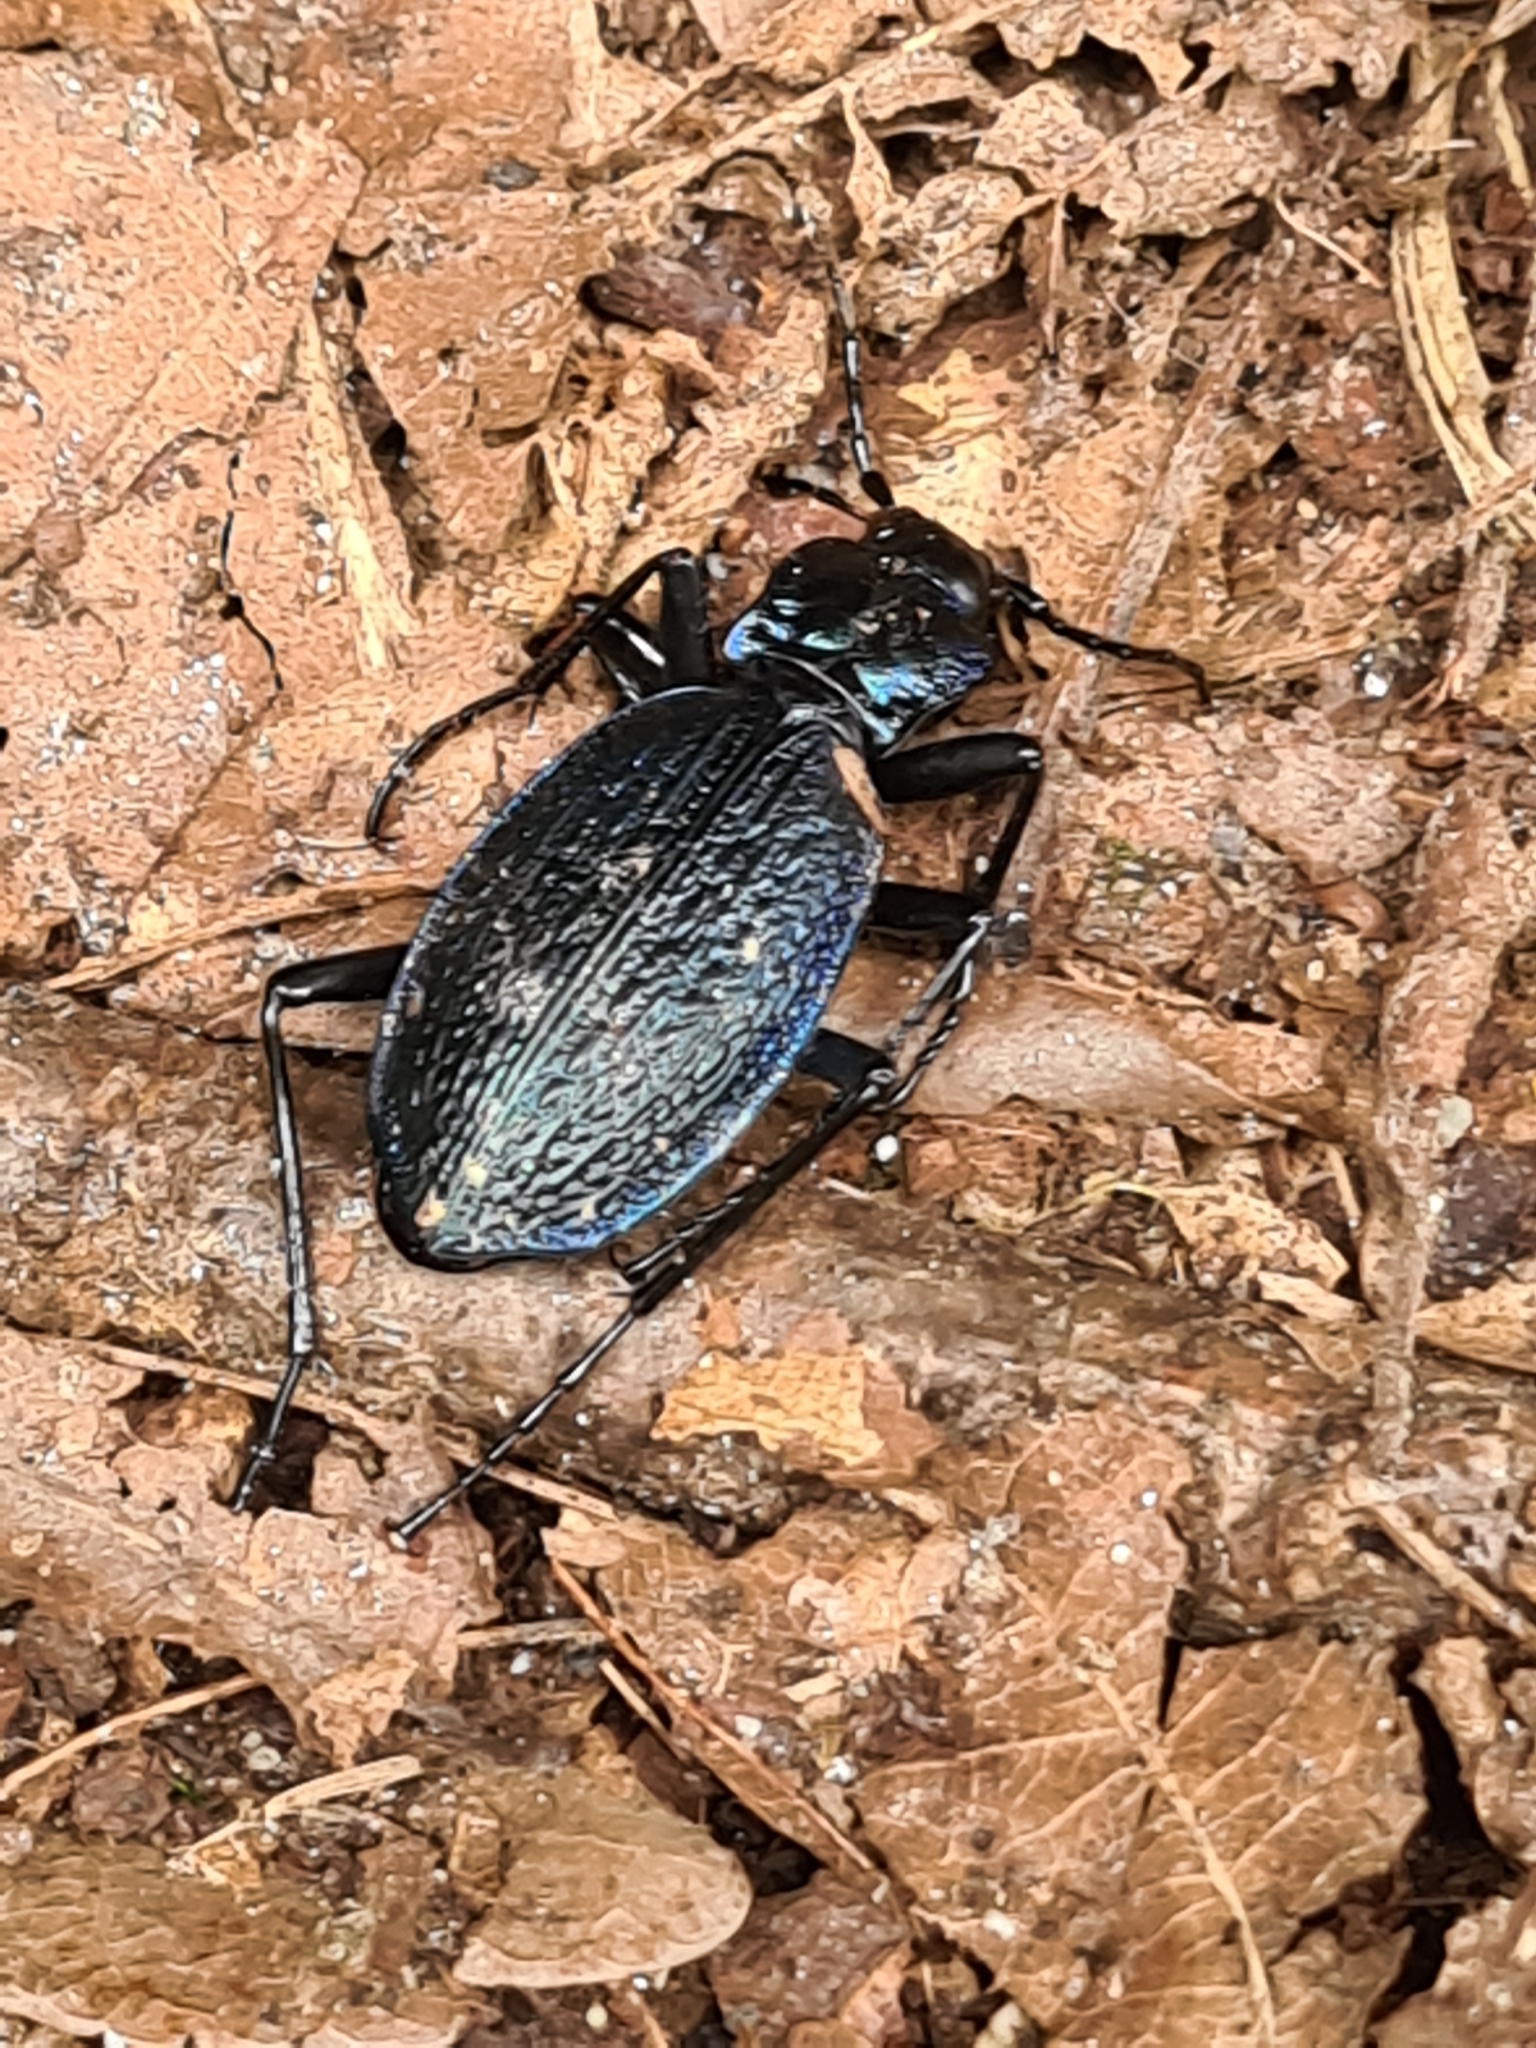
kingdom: Animalia
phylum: Arthropoda
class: Insecta
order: Coleoptera
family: Carabidae
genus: Carabus
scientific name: Carabus intricatus
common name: Blue ground beetle
